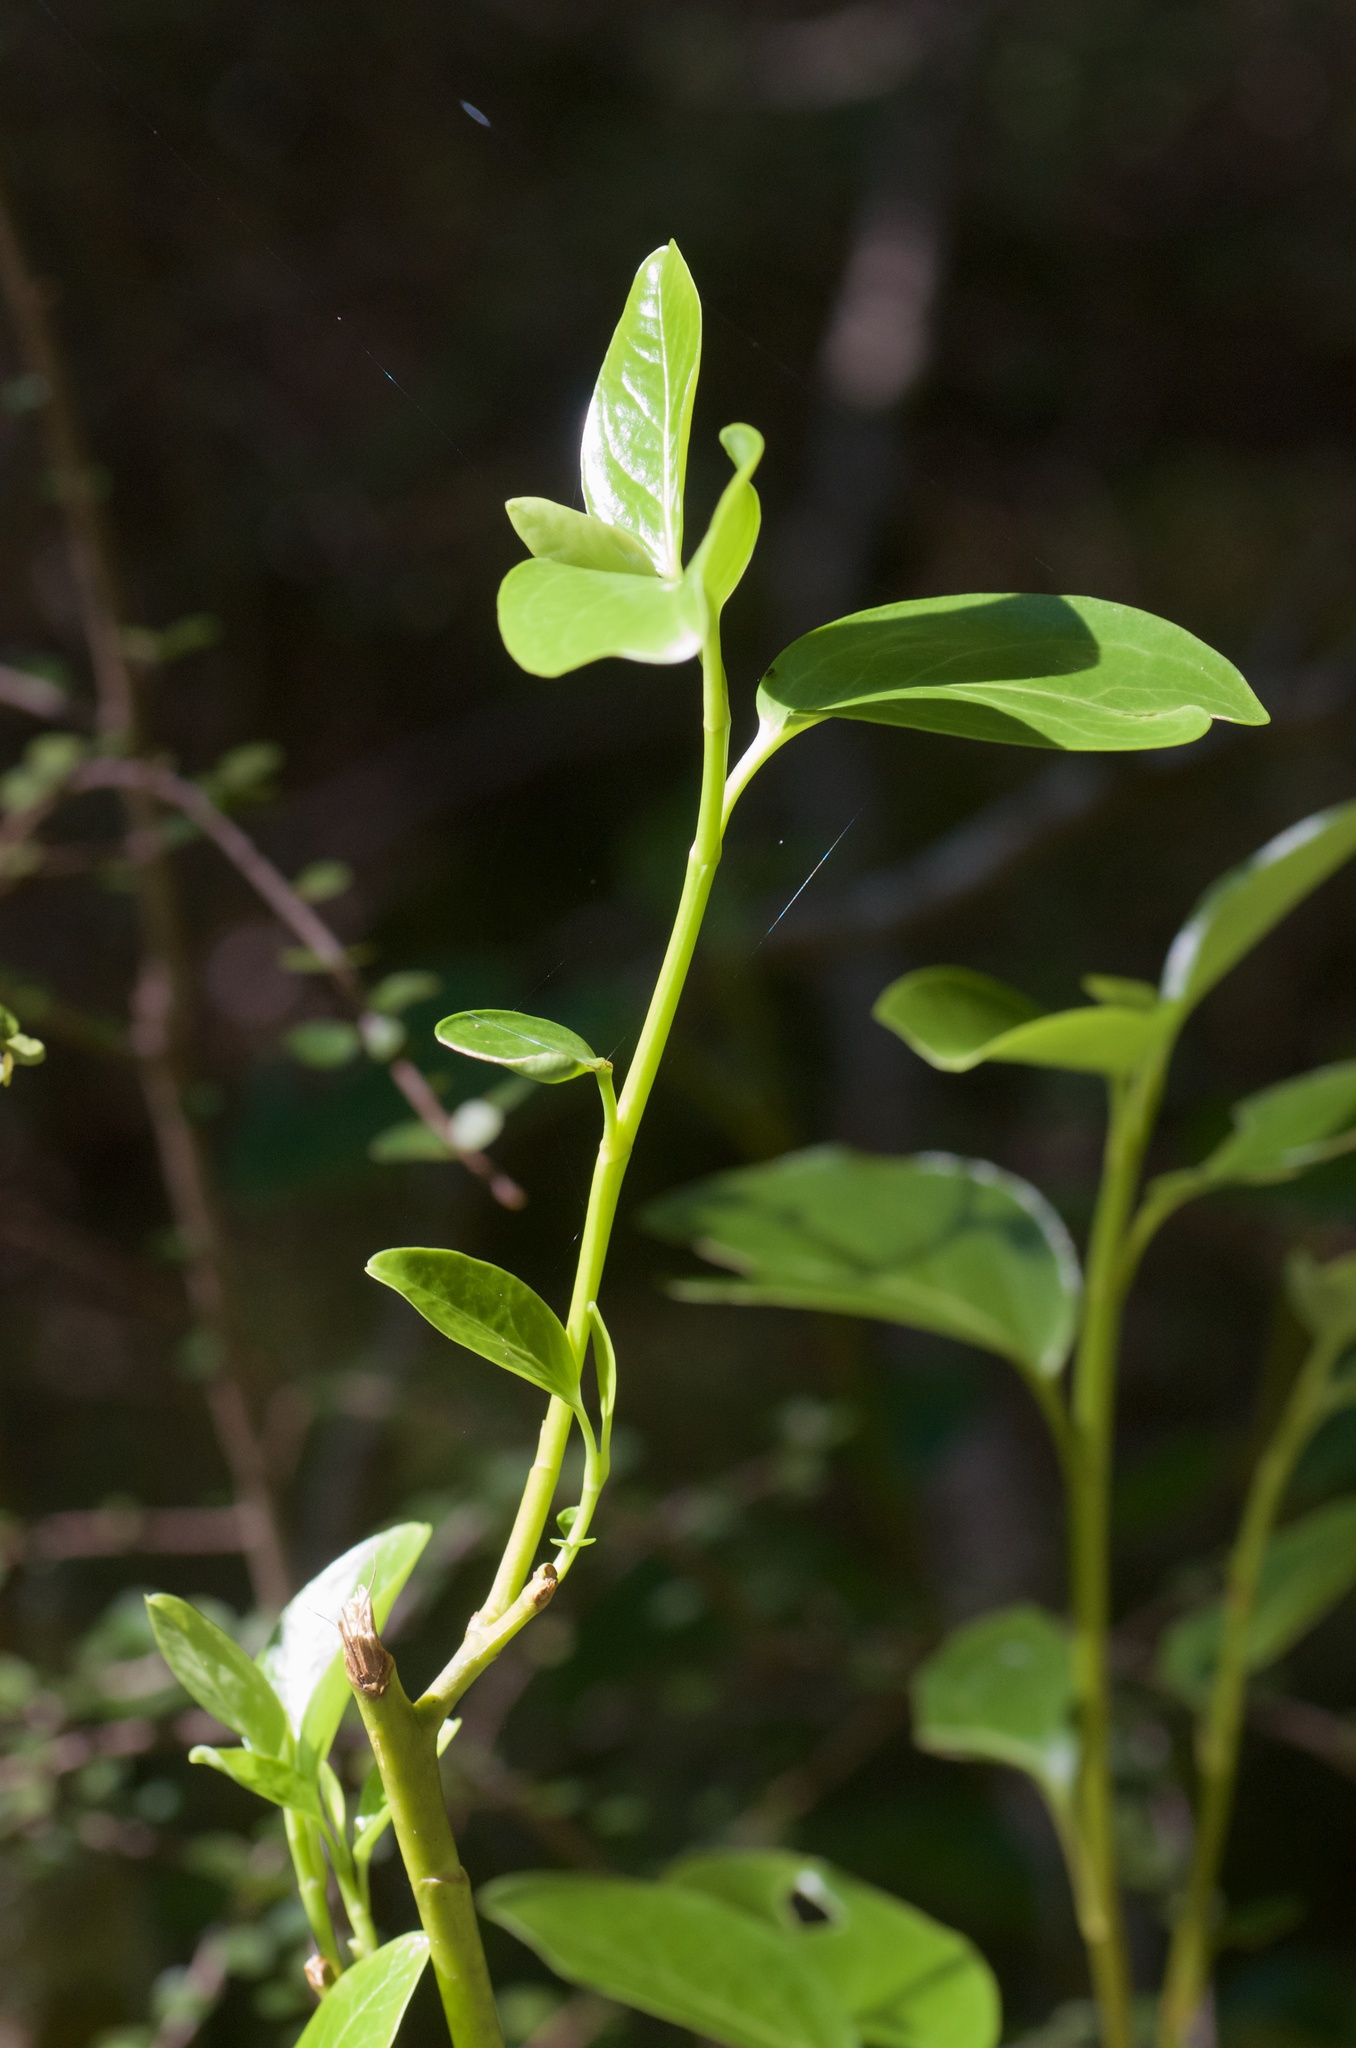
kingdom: Plantae
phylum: Tracheophyta
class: Magnoliopsida
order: Apiales
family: Griseliniaceae
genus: Griselinia
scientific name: Griselinia littoralis
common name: New zealand broadleaf
